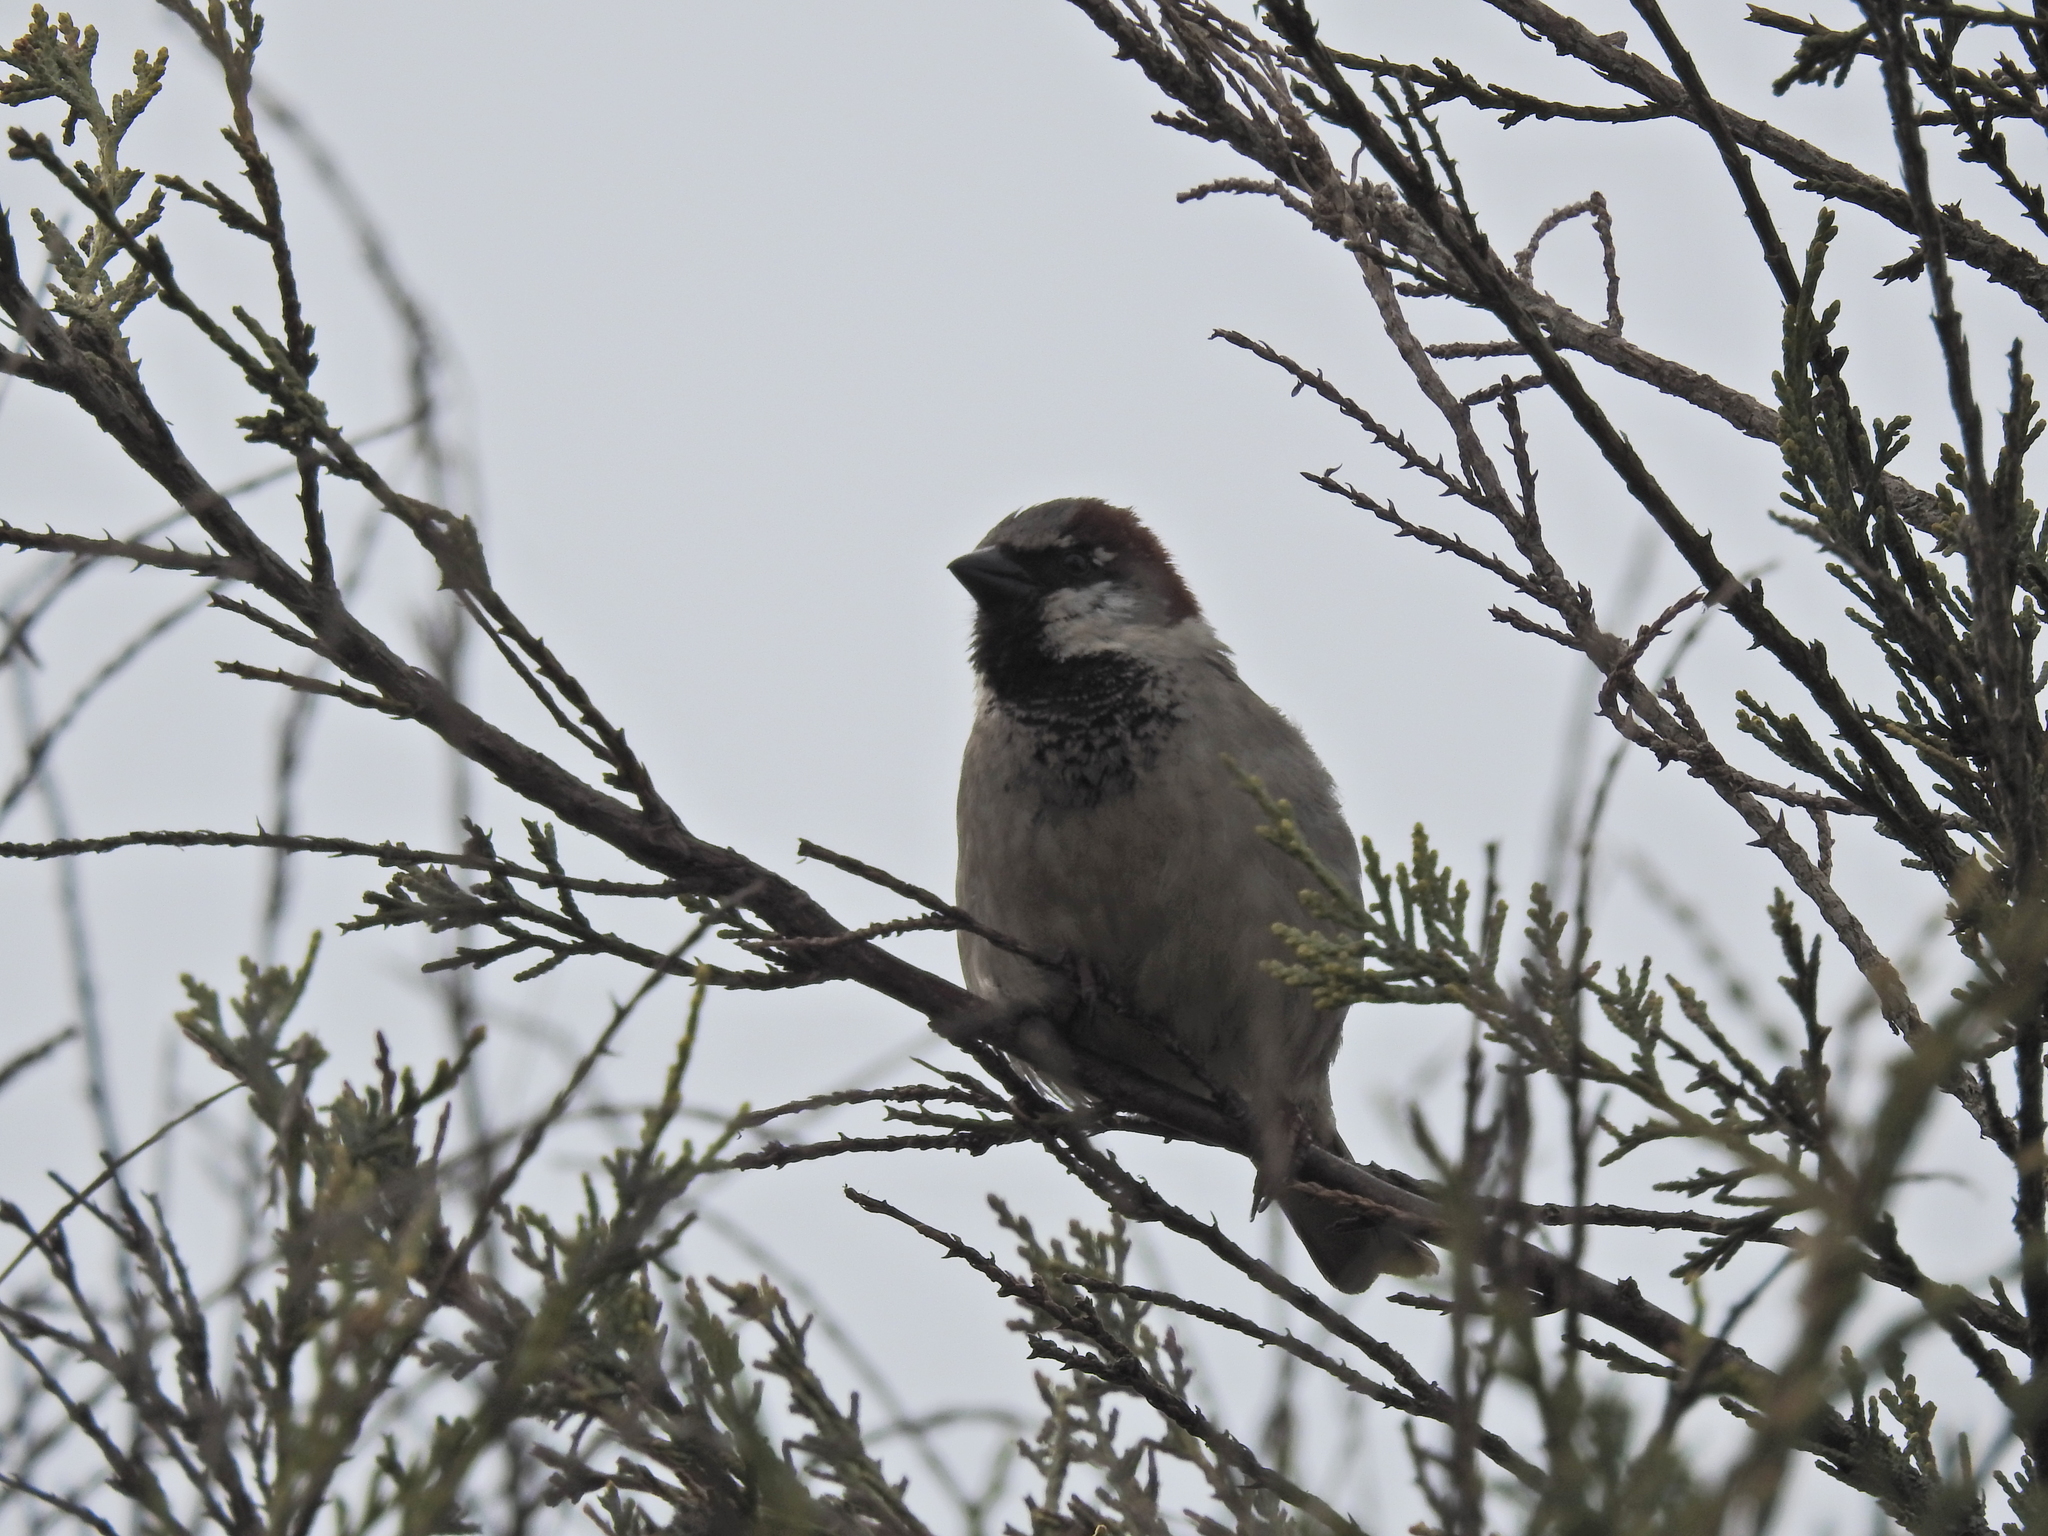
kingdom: Animalia
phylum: Chordata
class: Aves
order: Passeriformes
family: Passeridae
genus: Passer
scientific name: Passer domesticus
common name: House sparrow
